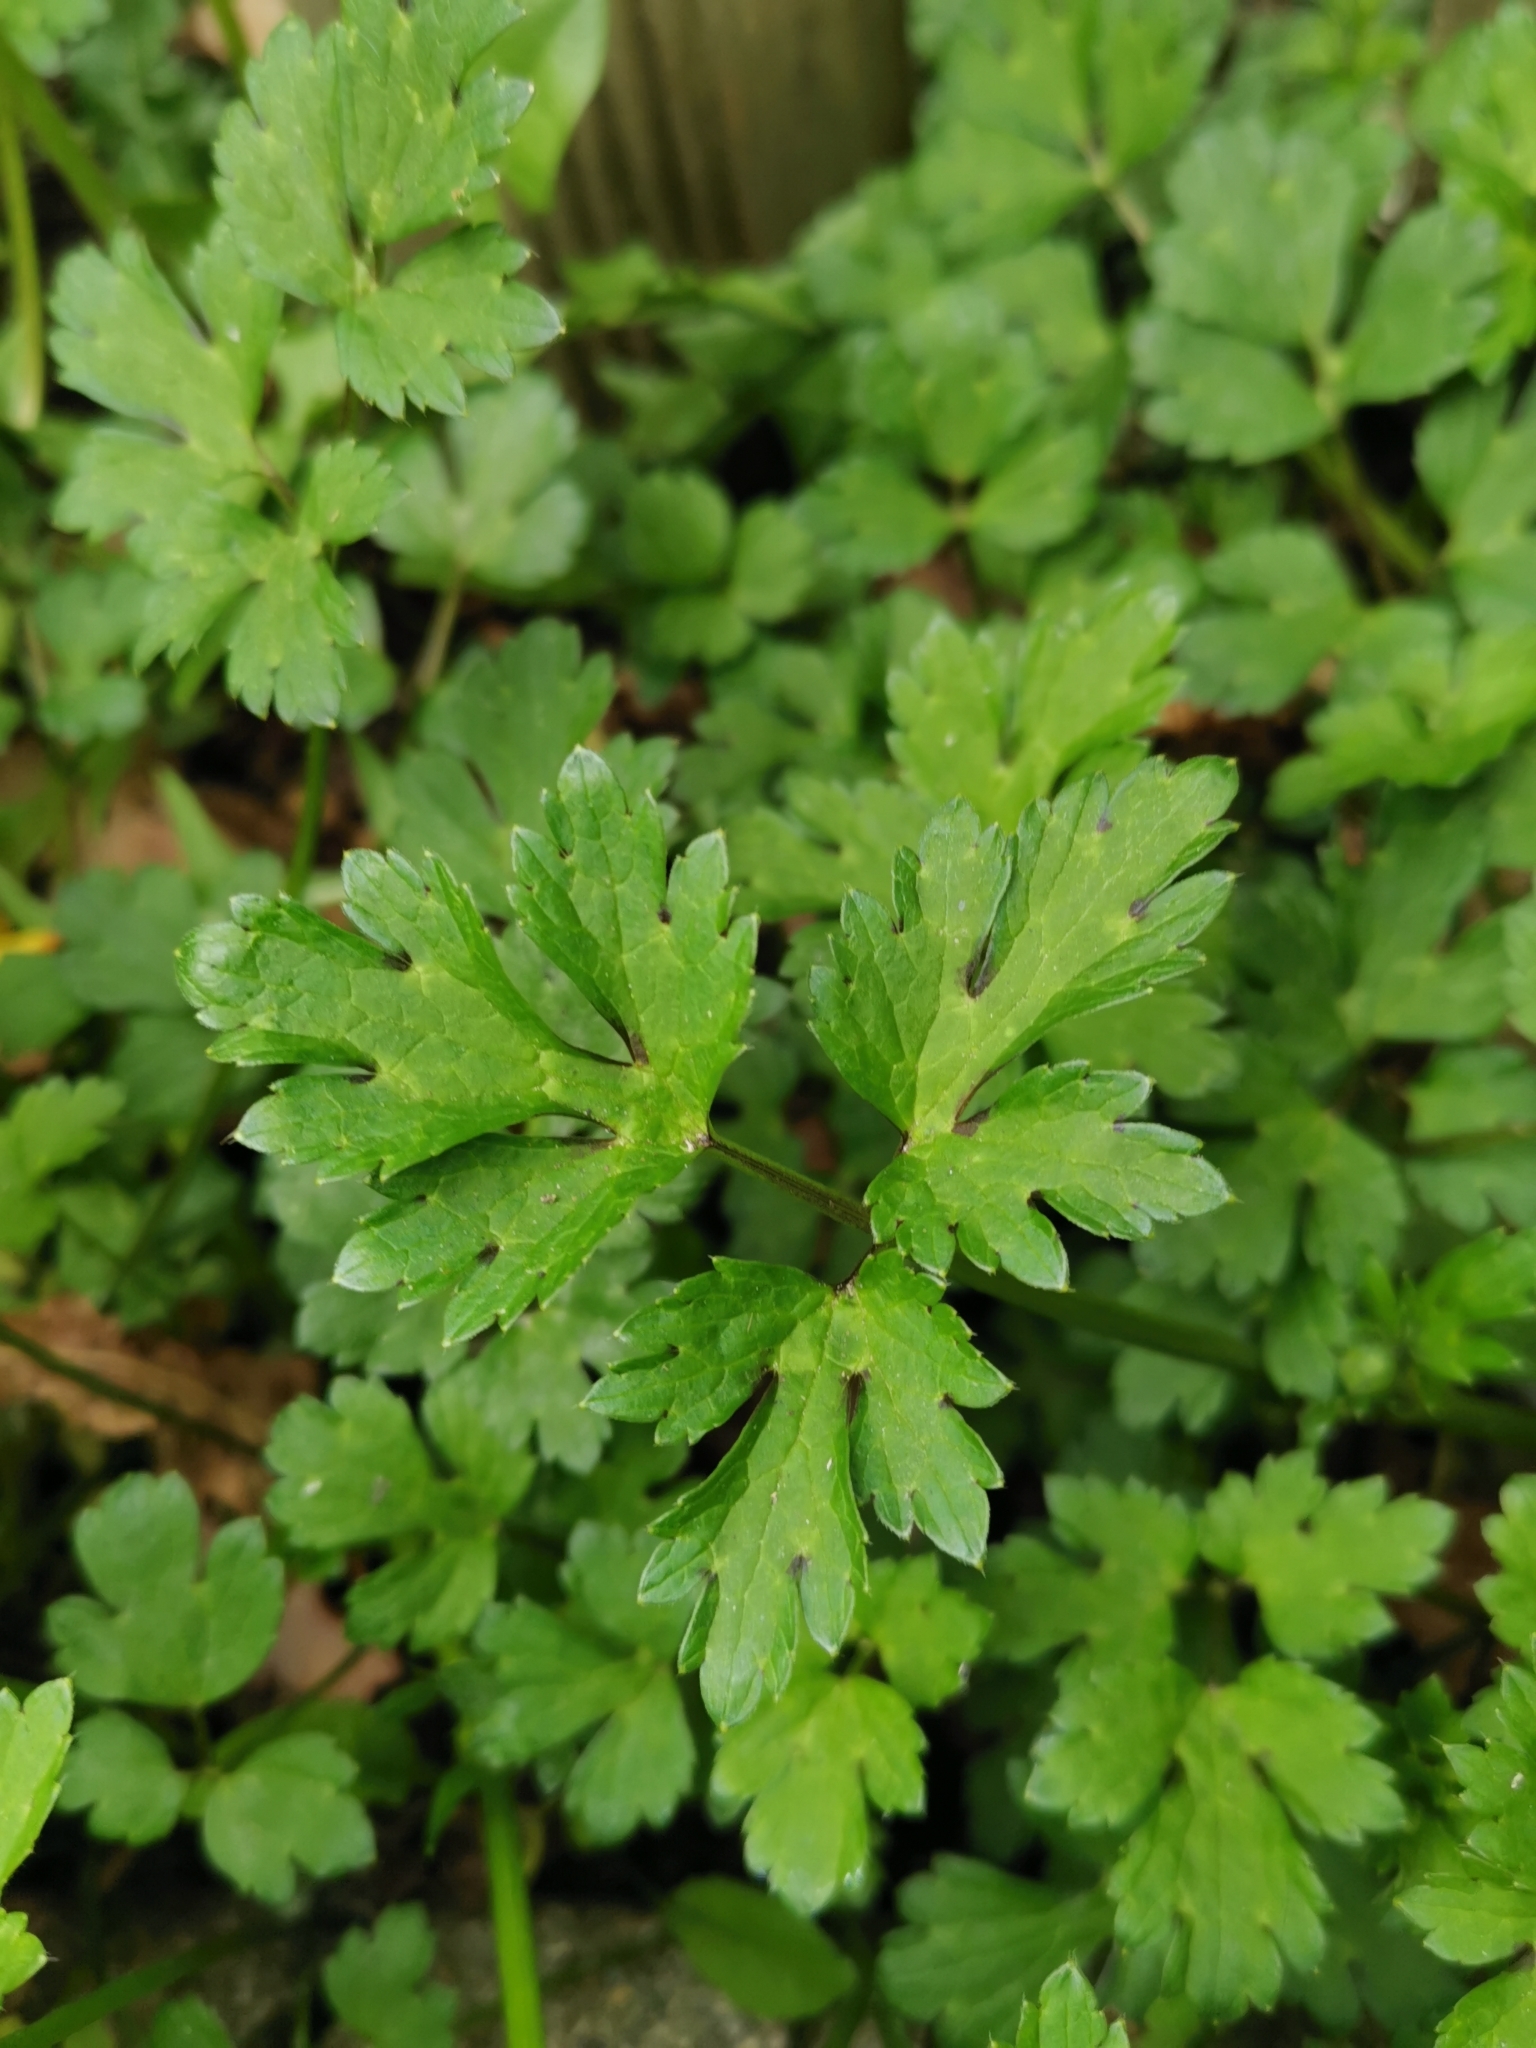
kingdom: Plantae
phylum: Tracheophyta
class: Magnoliopsida
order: Ranunculales
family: Ranunculaceae
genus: Ranunculus
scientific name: Ranunculus repens
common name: Creeping buttercup
